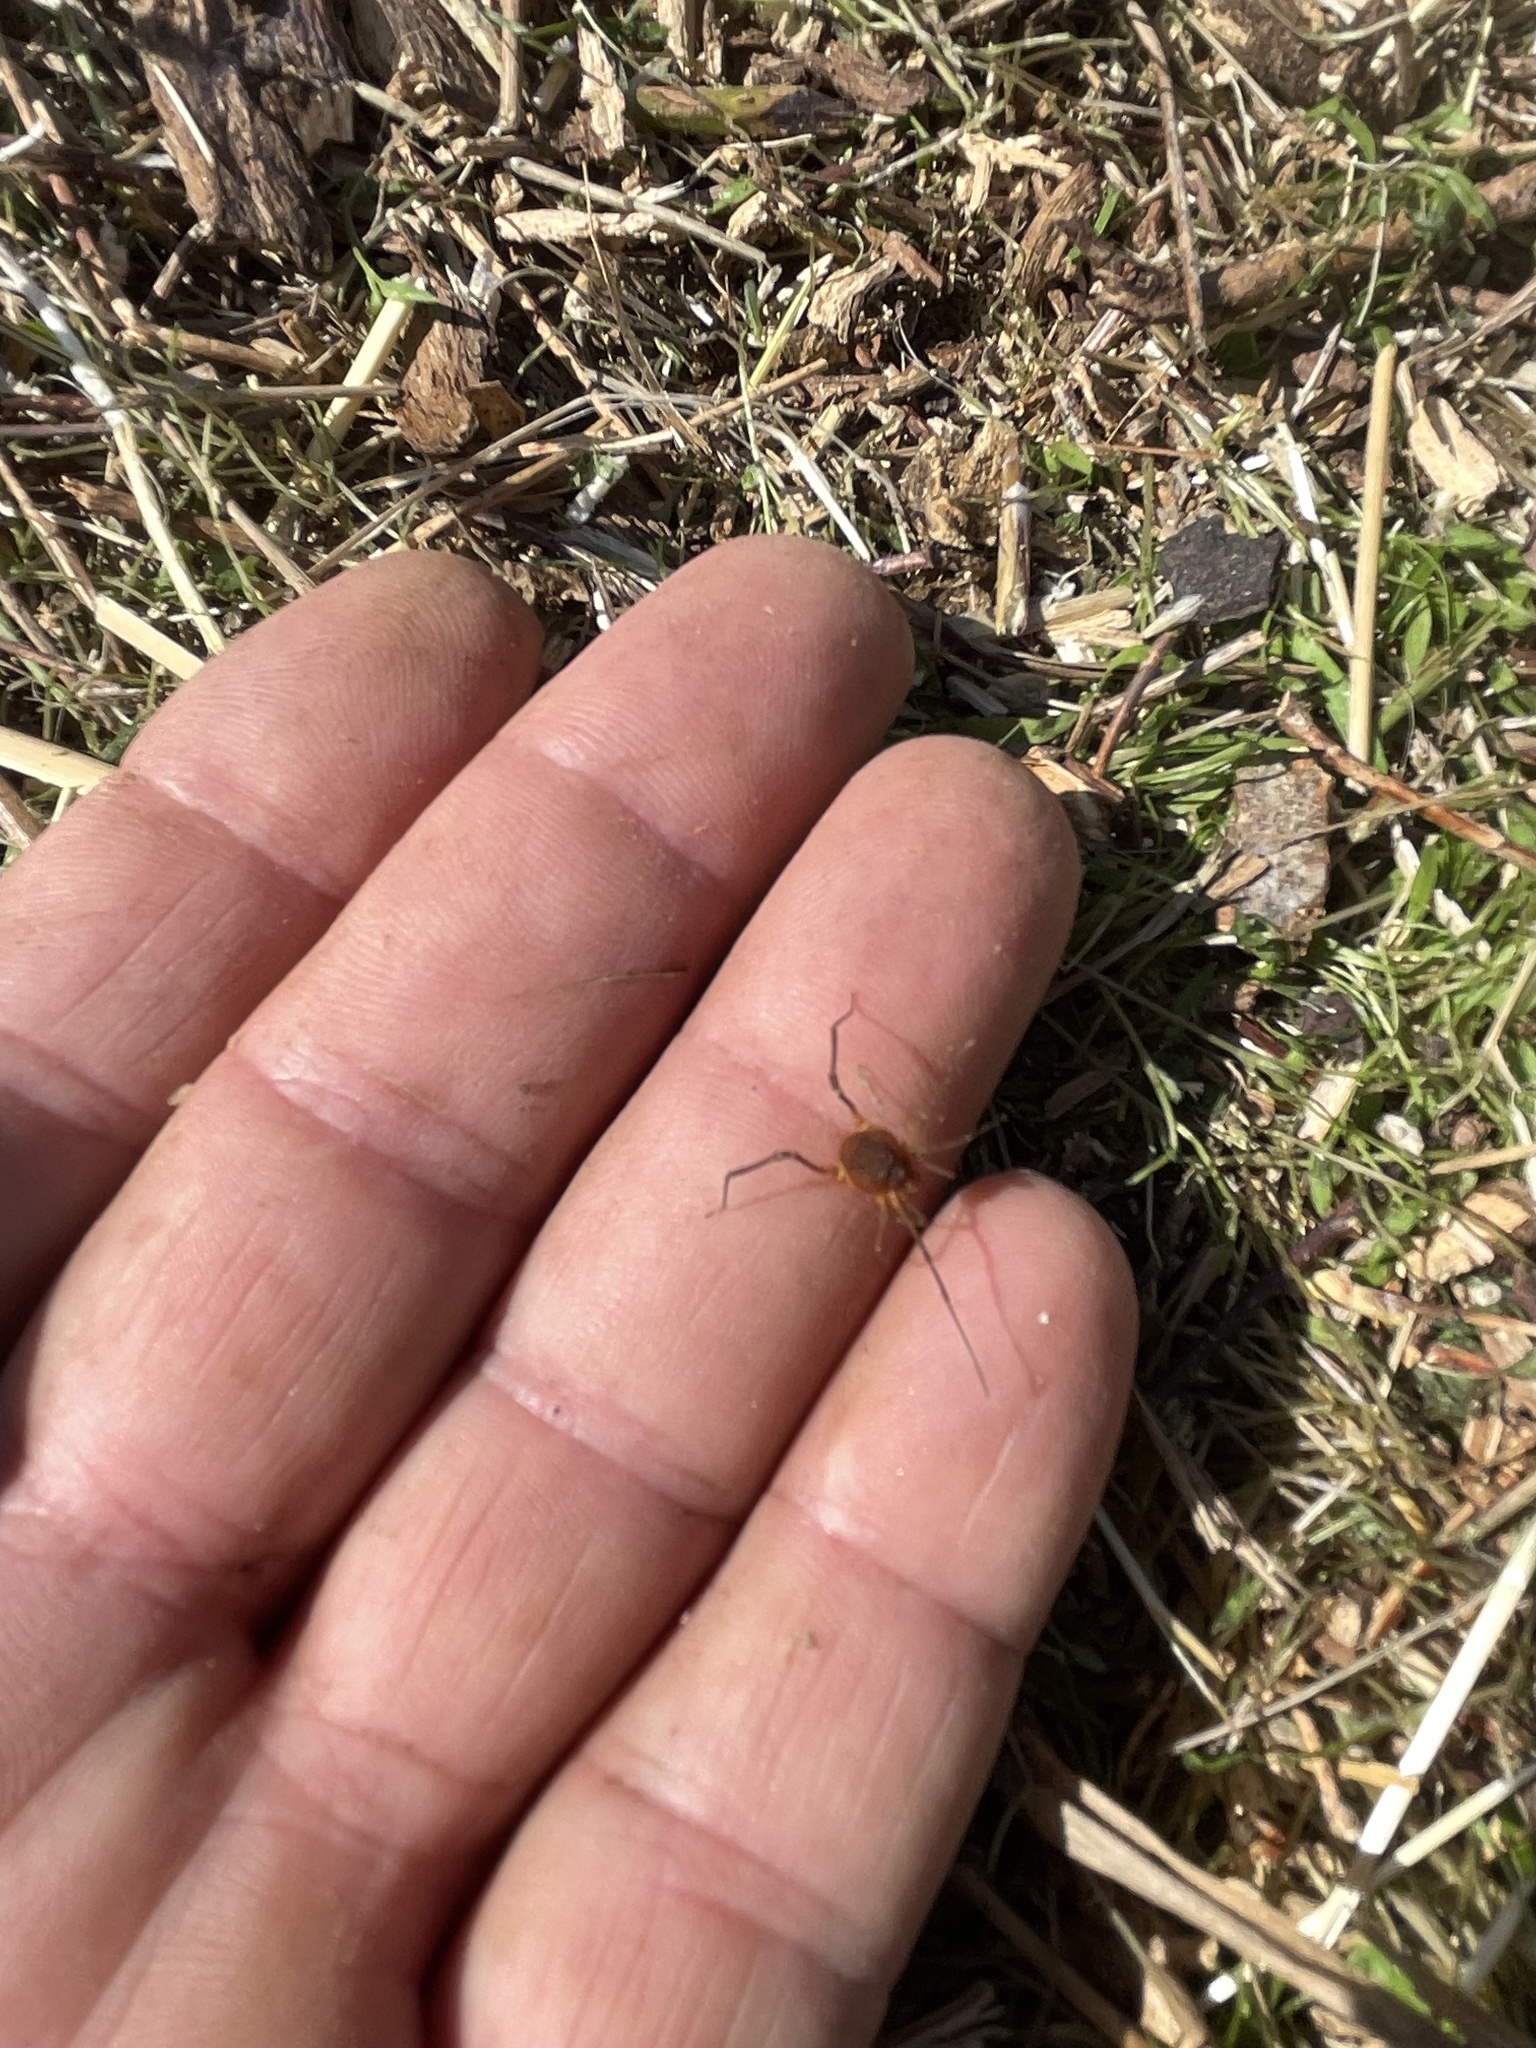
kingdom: Animalia
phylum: Arthropoda
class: Arachnida
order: Opiliones
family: Cosmetidae
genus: Libitioides
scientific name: Libitioides sayi
